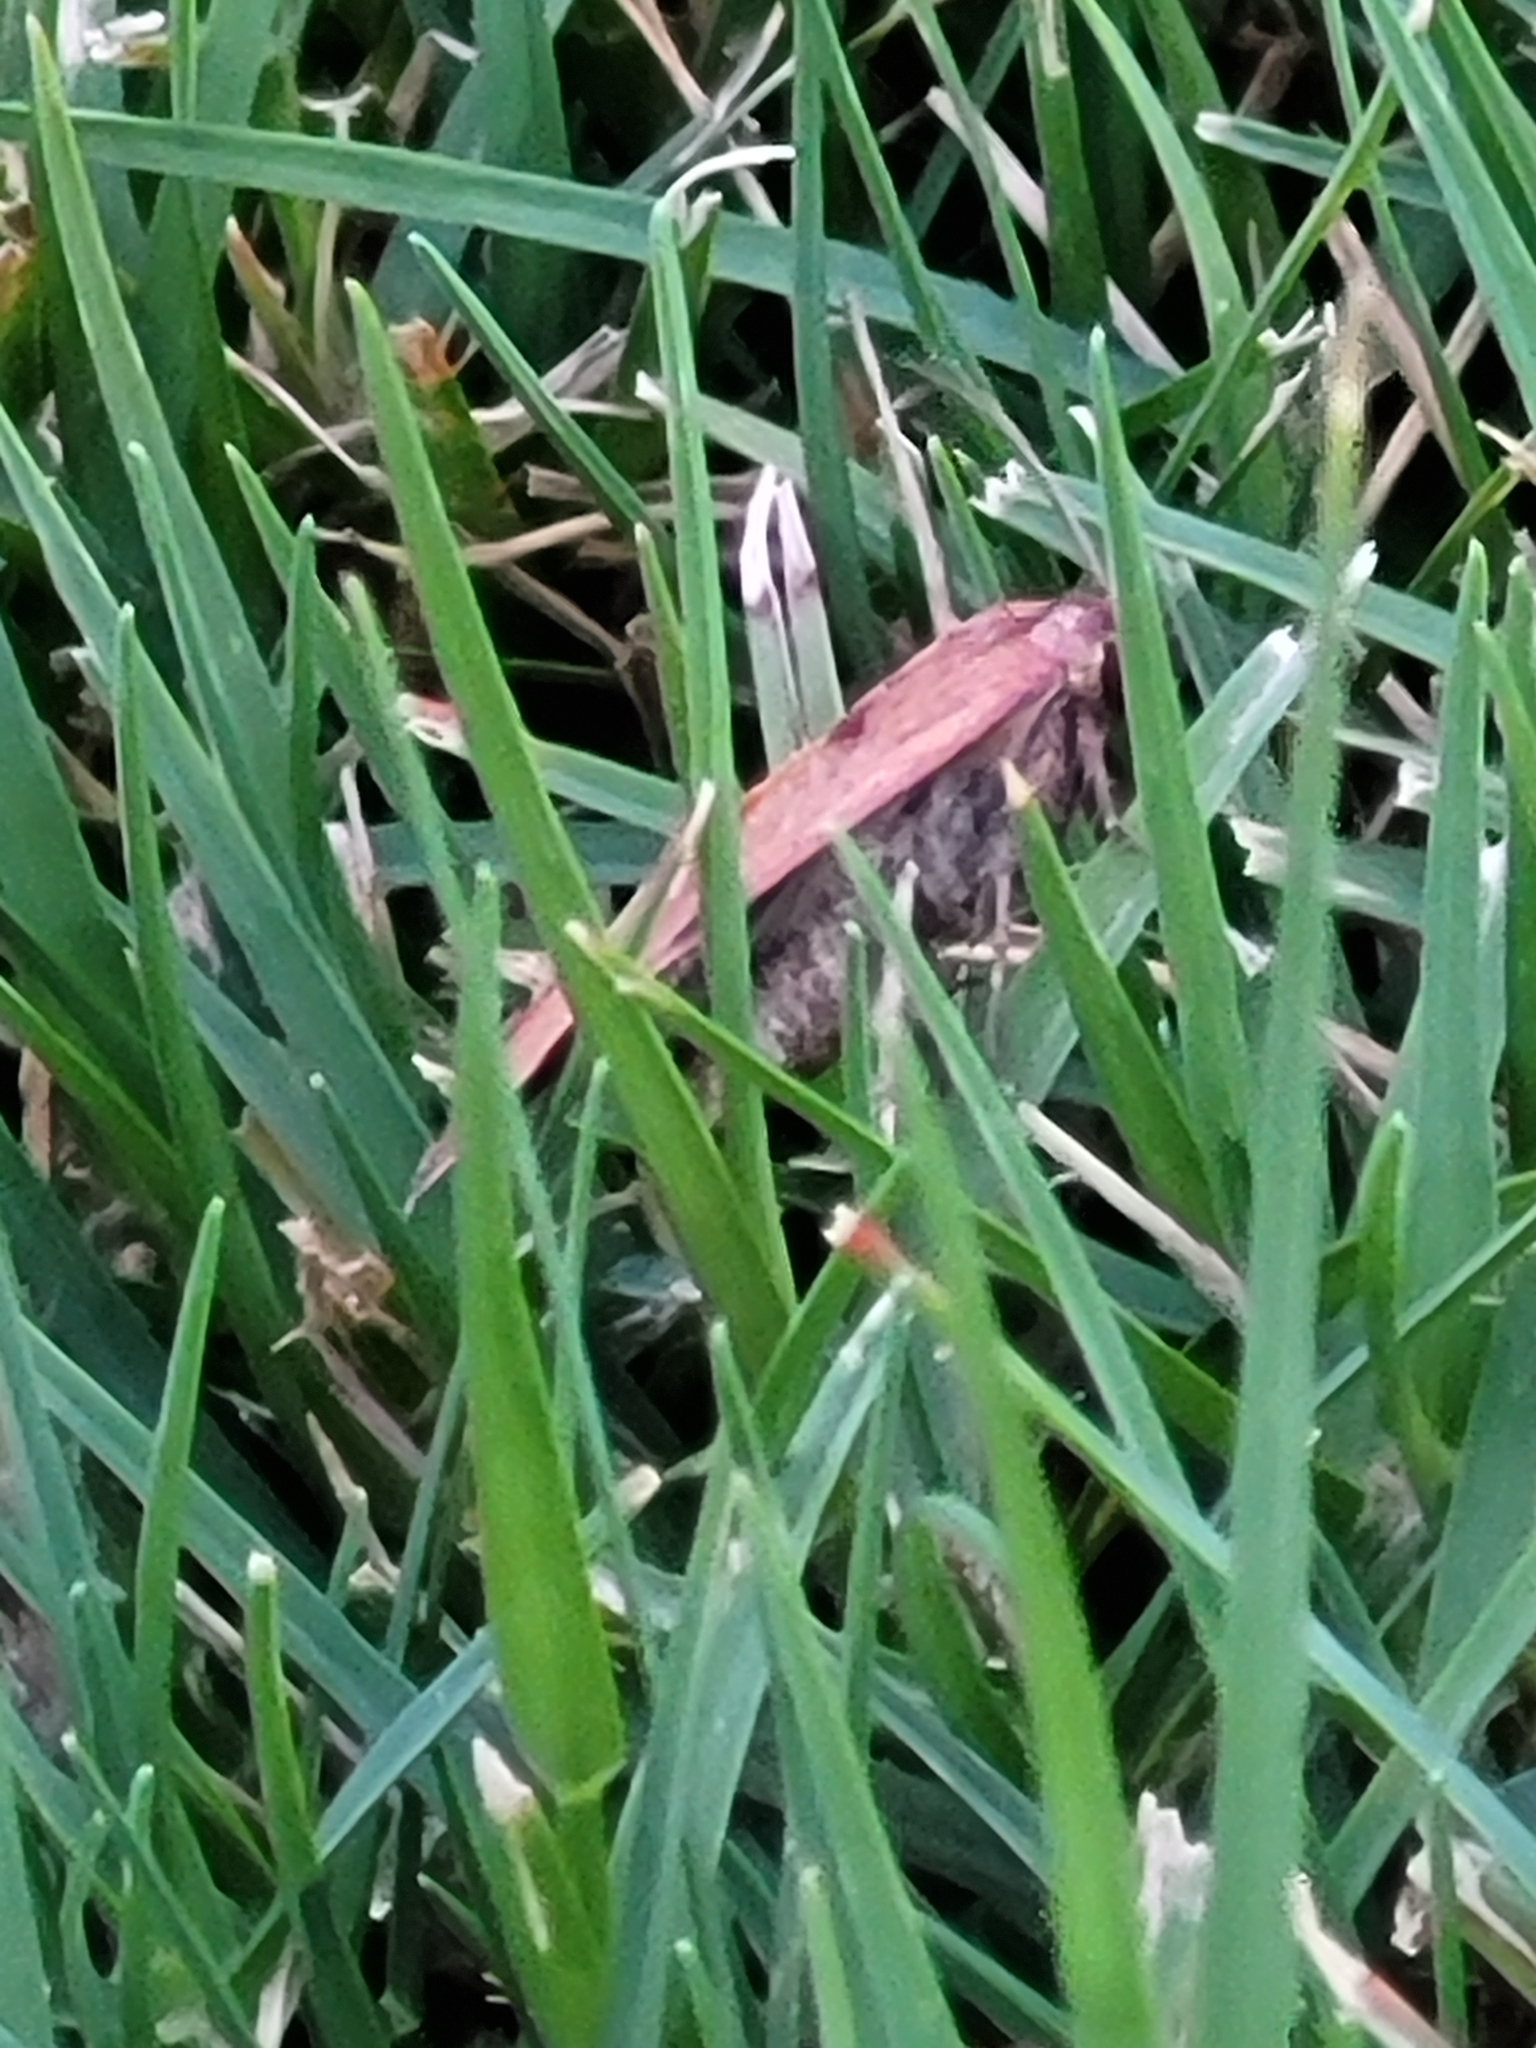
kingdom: Animalia
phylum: Arthropoda
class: Insecta
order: Lepidoptera
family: Noctuidae
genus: Galgula
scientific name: Galgula partita
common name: Wedgeling
